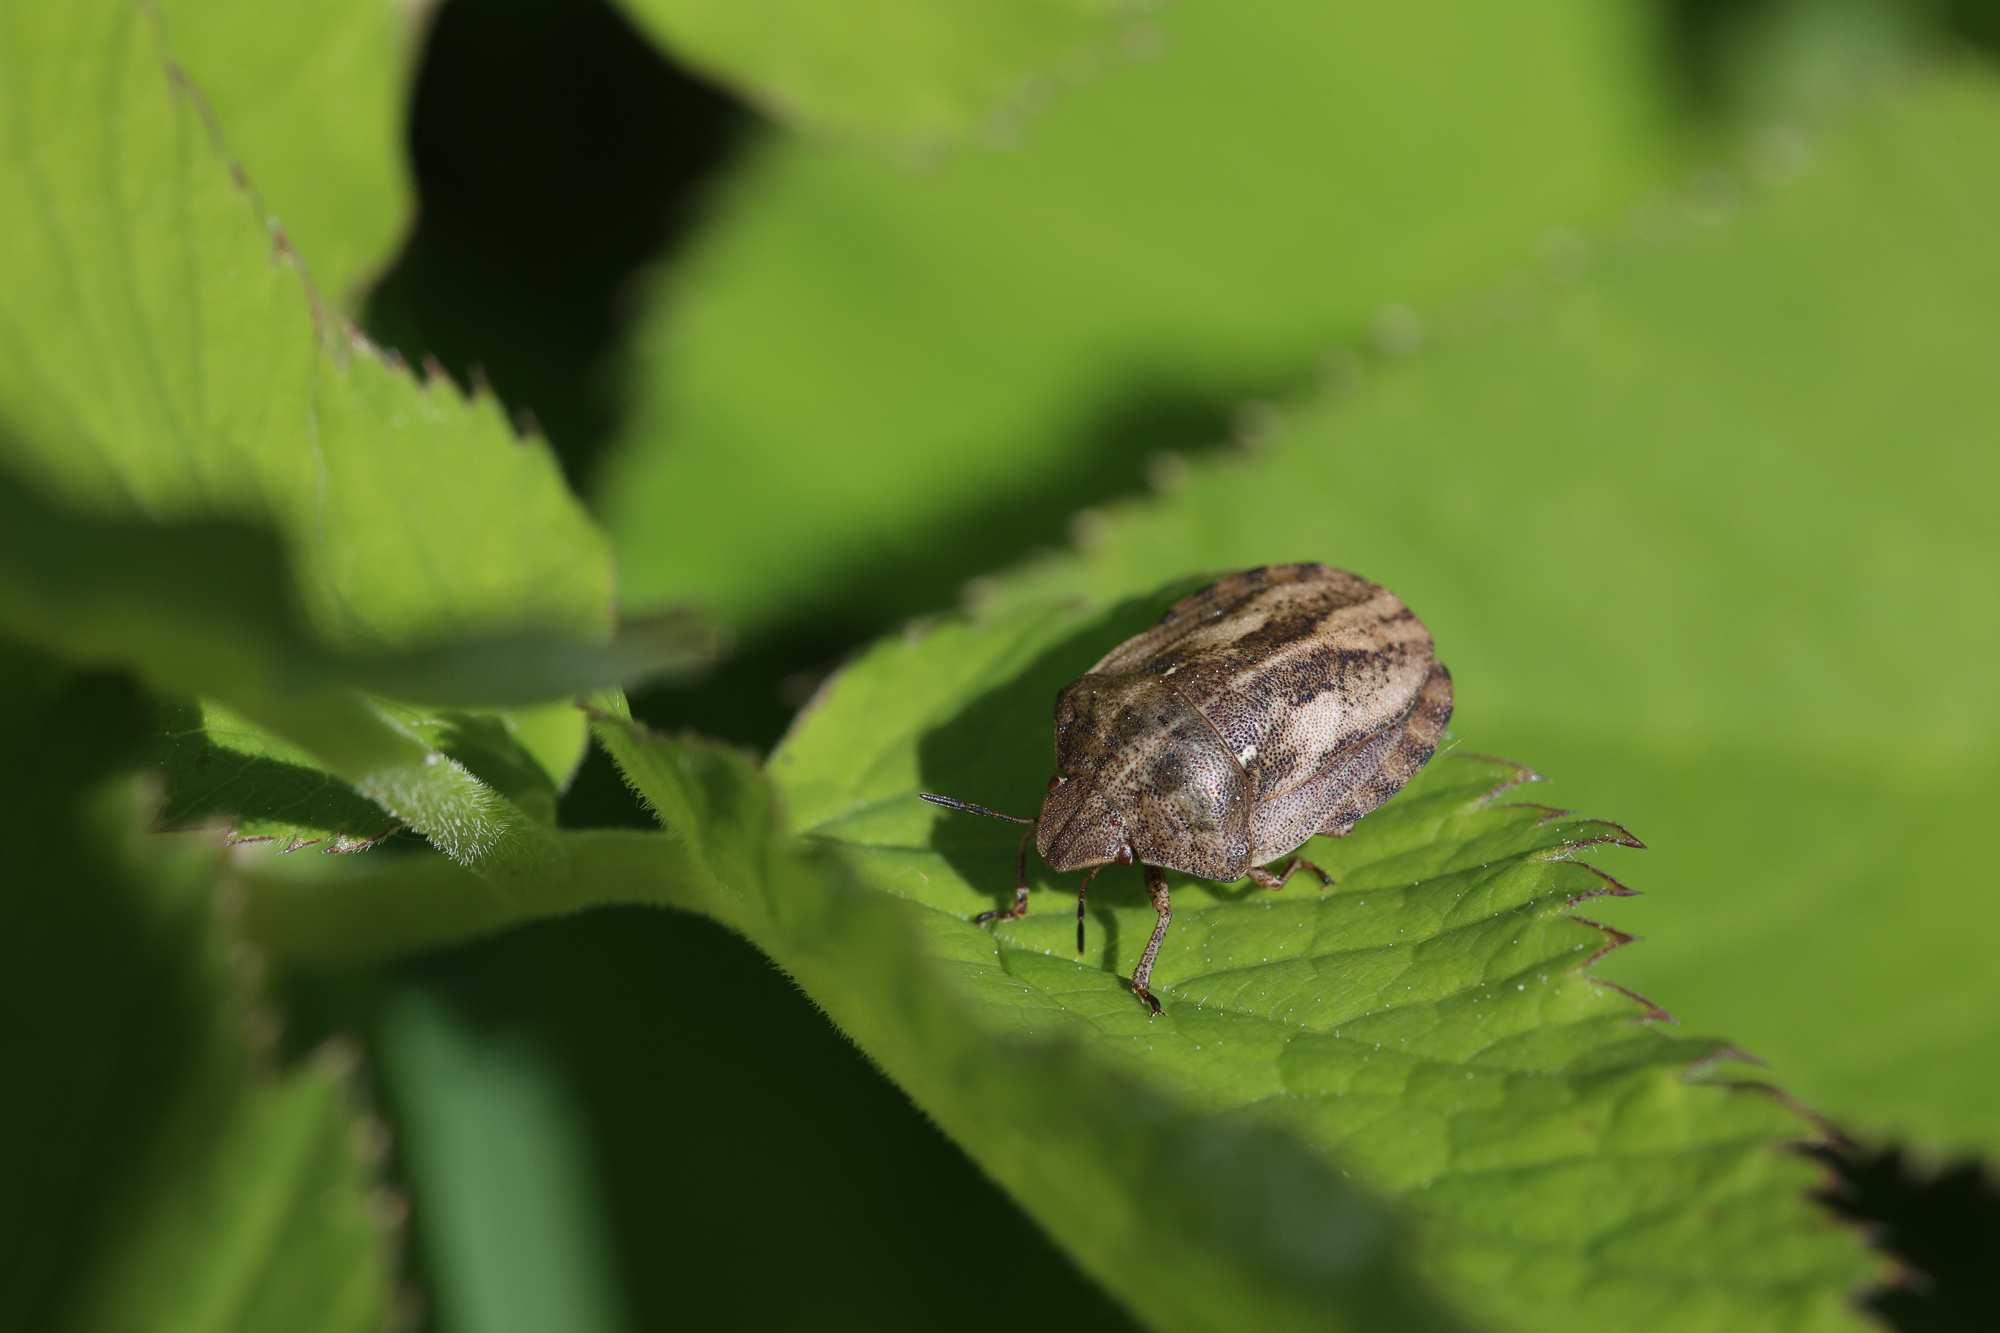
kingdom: Animalia
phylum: Arthropoda
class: Insecta
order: Hemiptera
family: Scutelleridae
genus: Eurygaster
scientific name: Eurygaster testudinaria
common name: Tortoise bug
